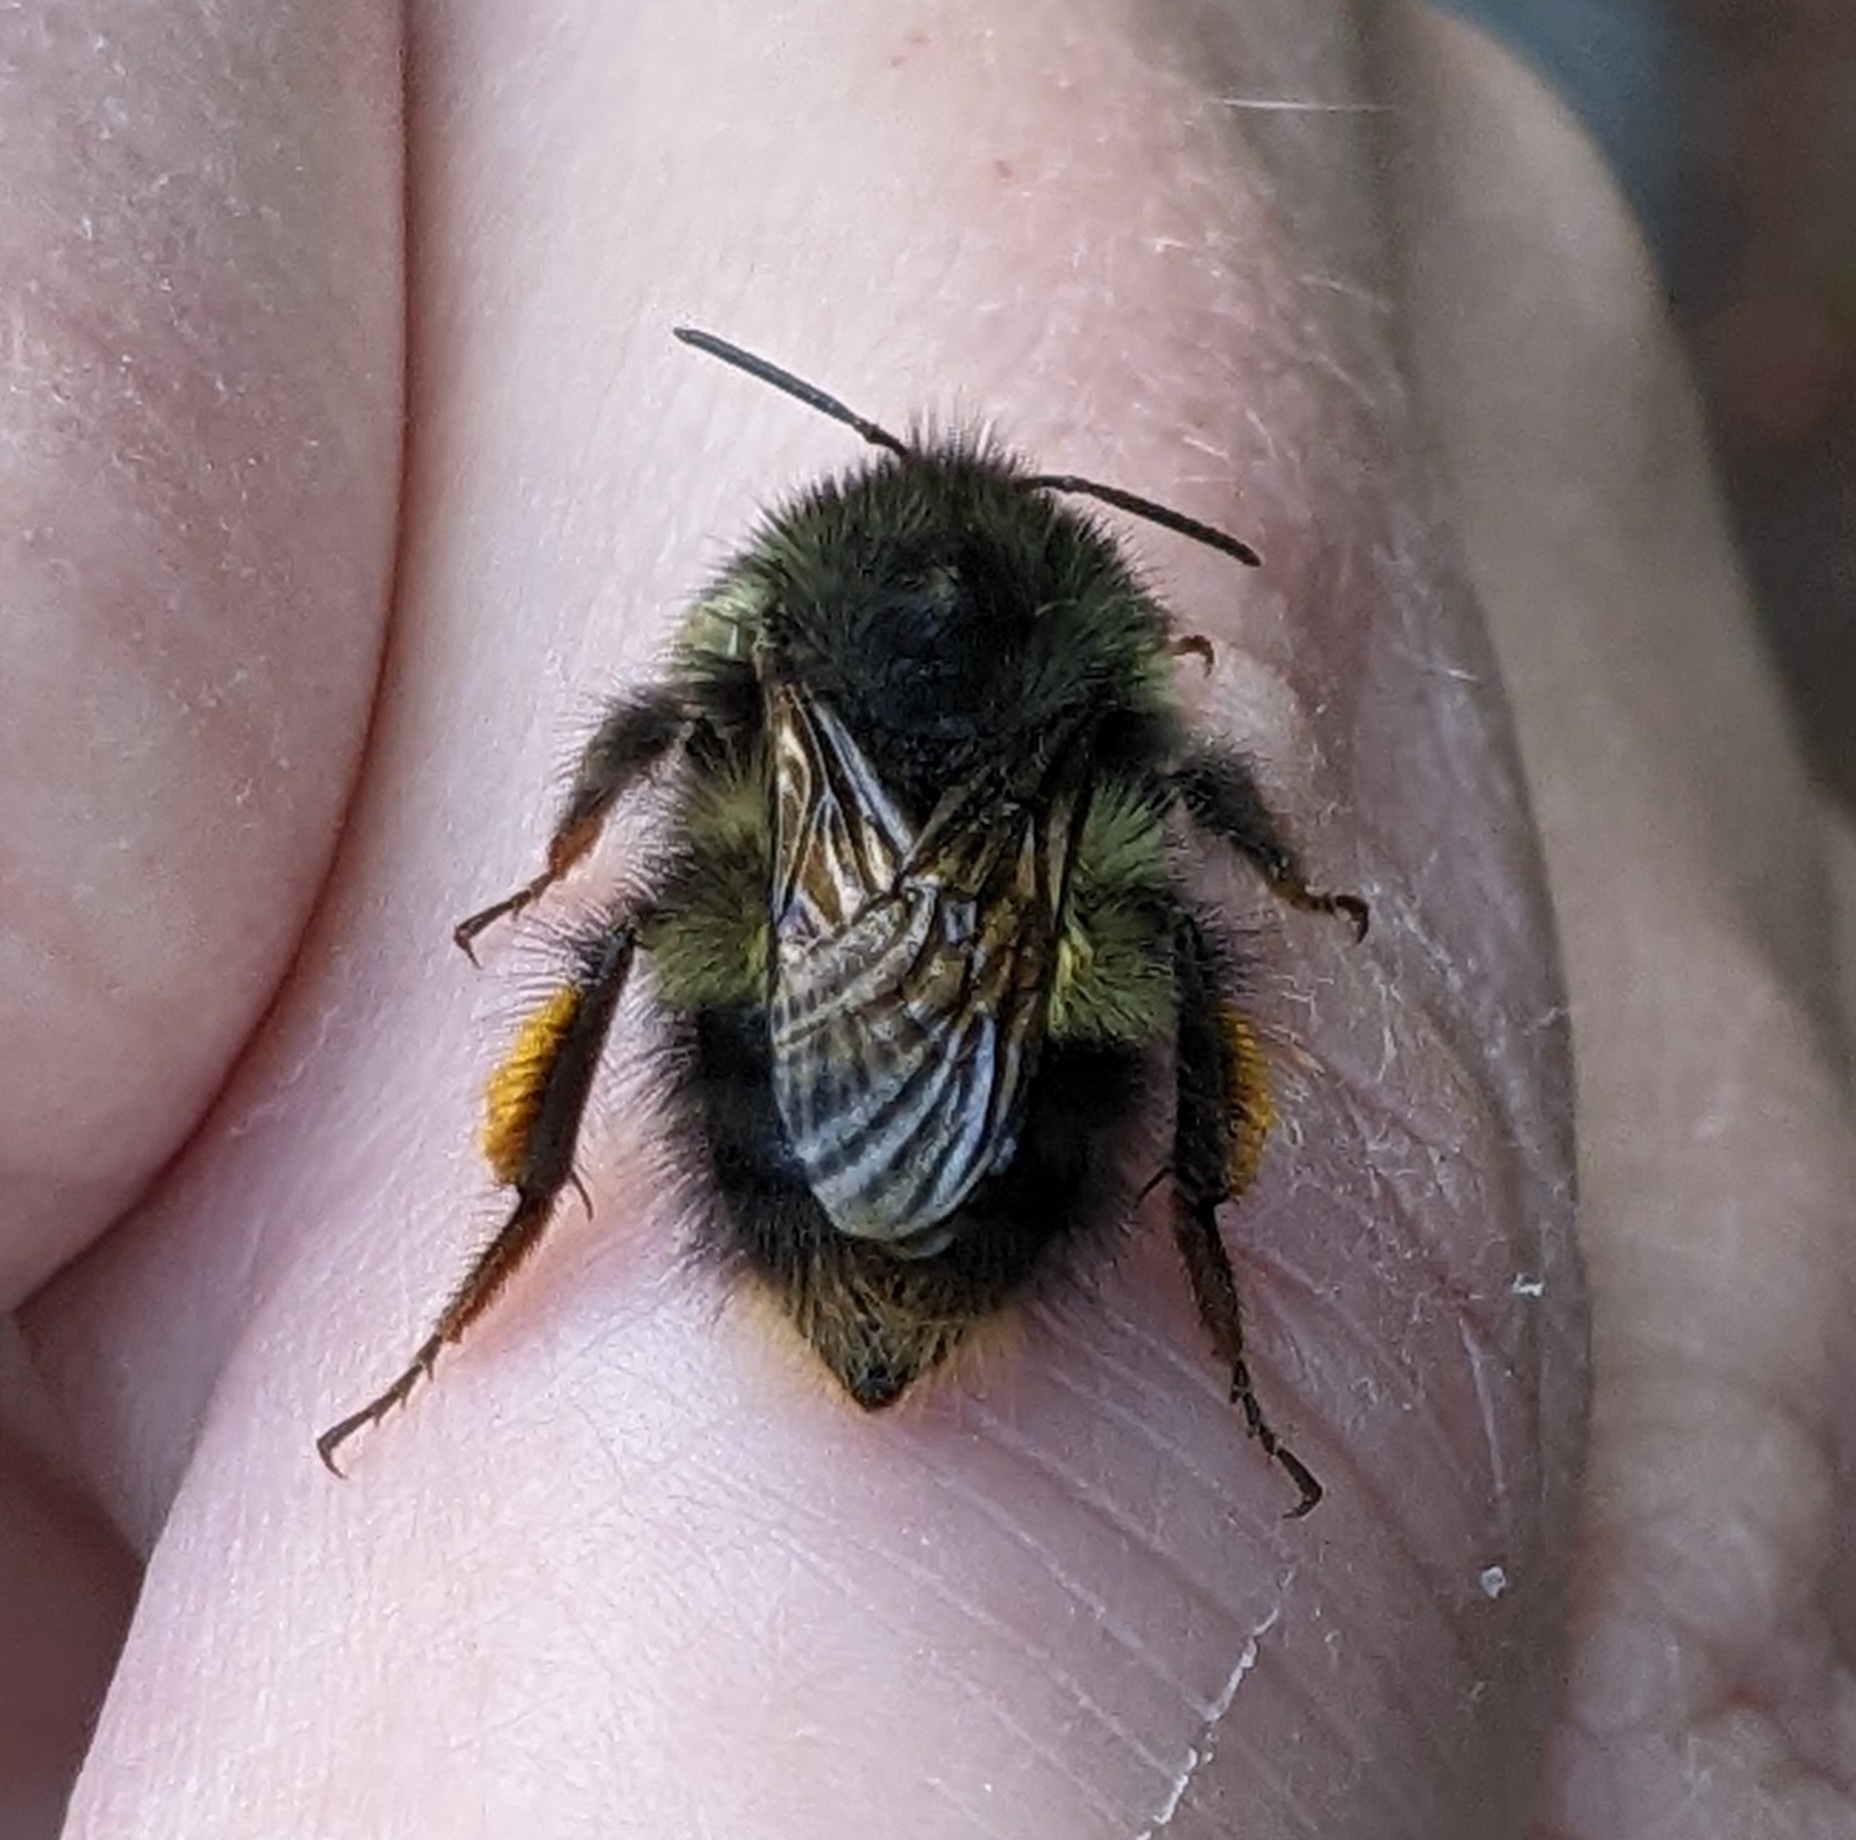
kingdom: Animalia
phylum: Arthropoda
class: Insecta
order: Hymenoptera
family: Apidae
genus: Bombus
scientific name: Bombus sitkensis
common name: Sitka bumble bee
